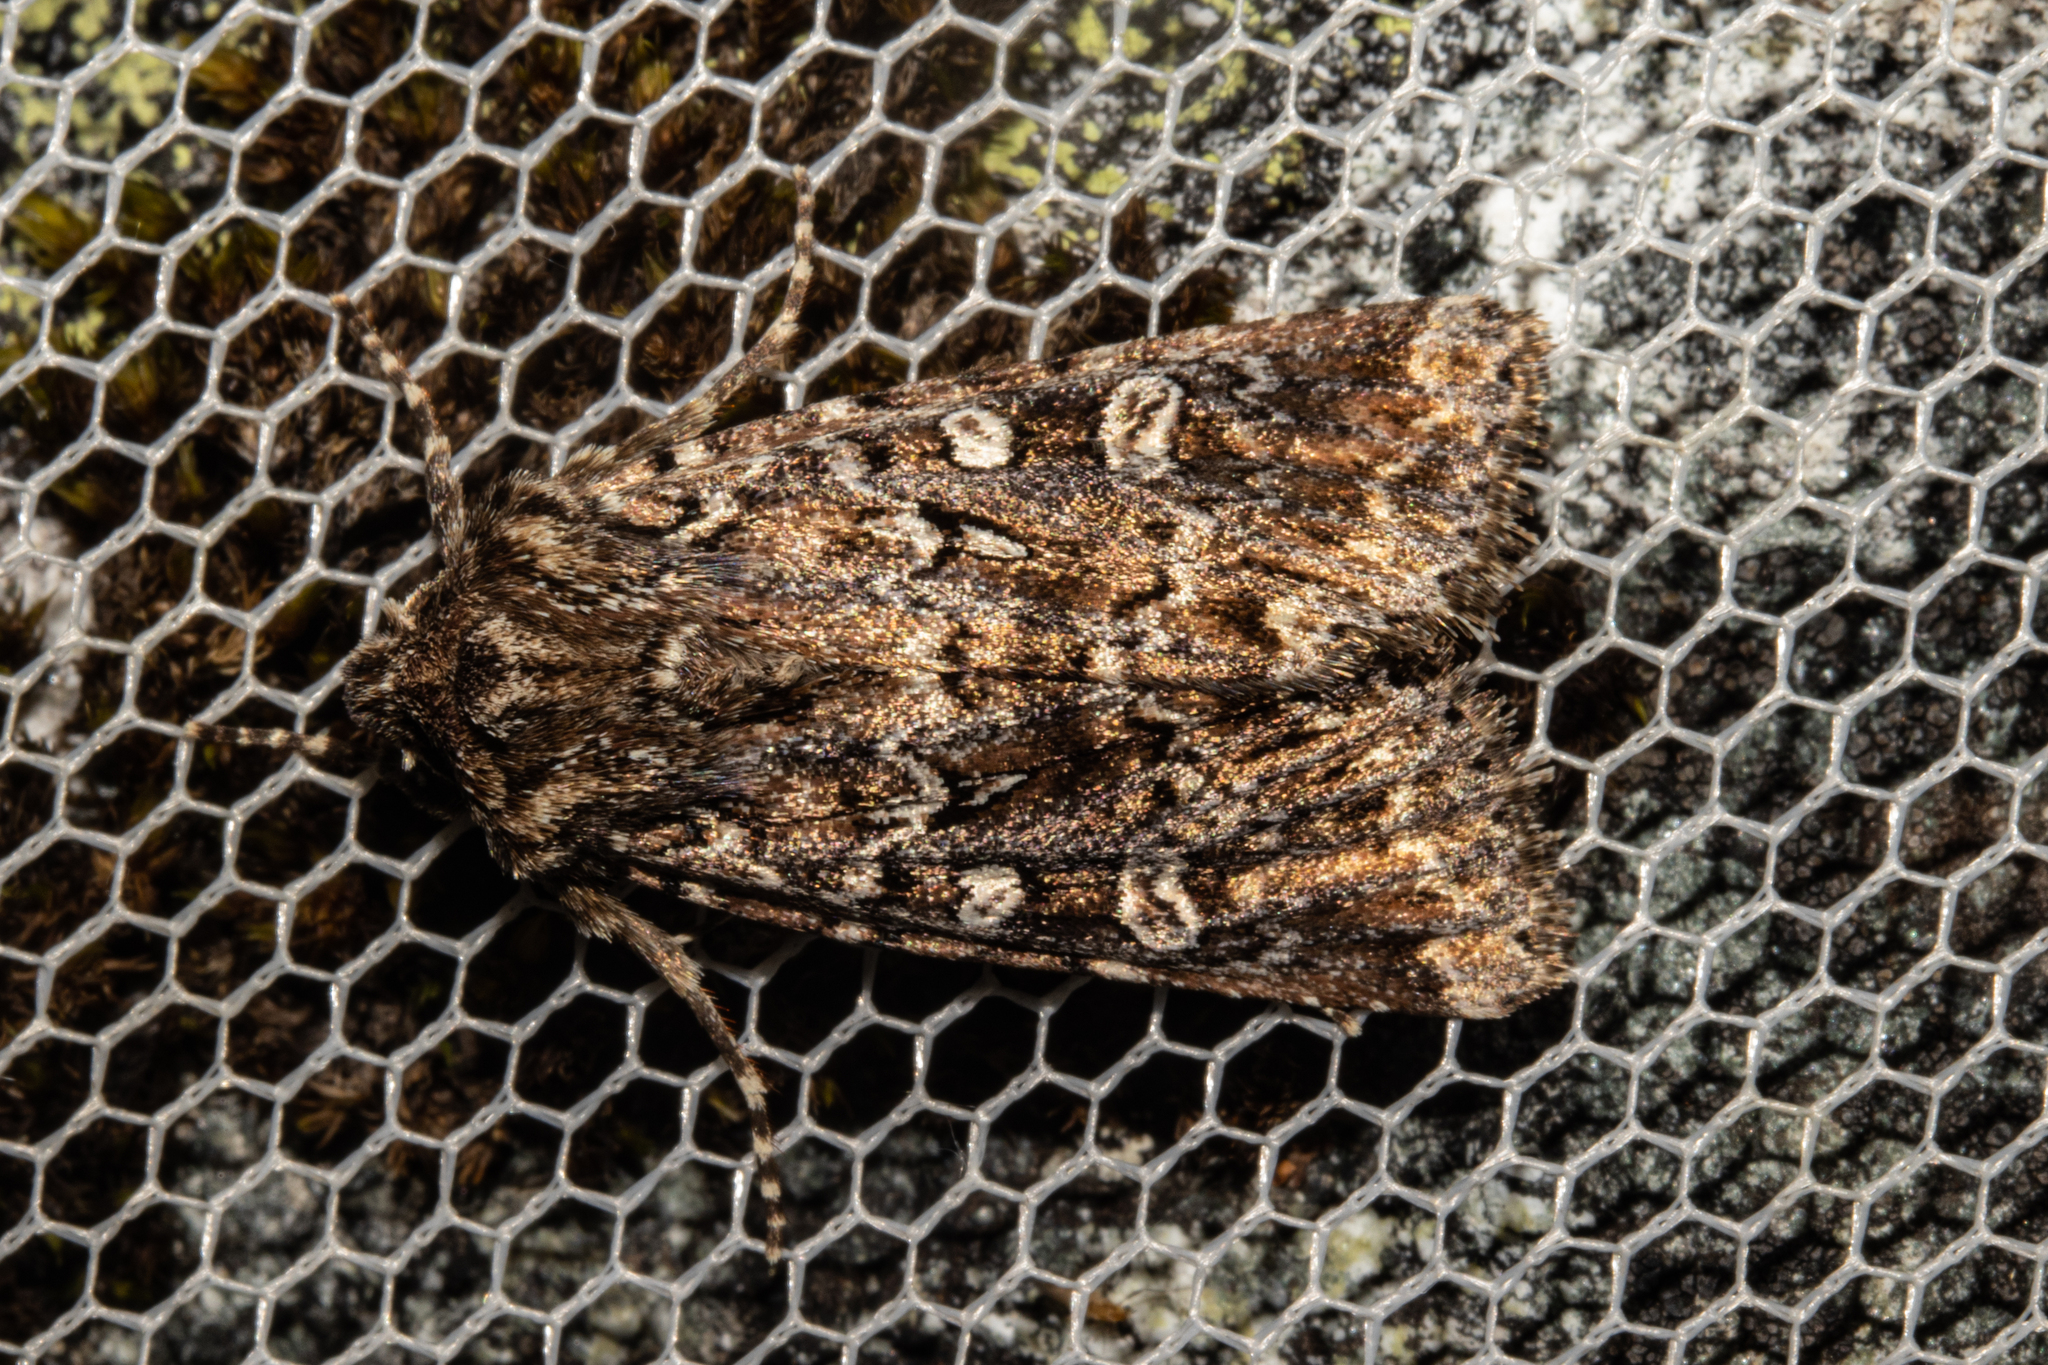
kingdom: Animalia
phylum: Arthropoda
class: Insecta
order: Lepidoptera
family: Noctuidae
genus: Ichneutica
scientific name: Ichneutica lithias
